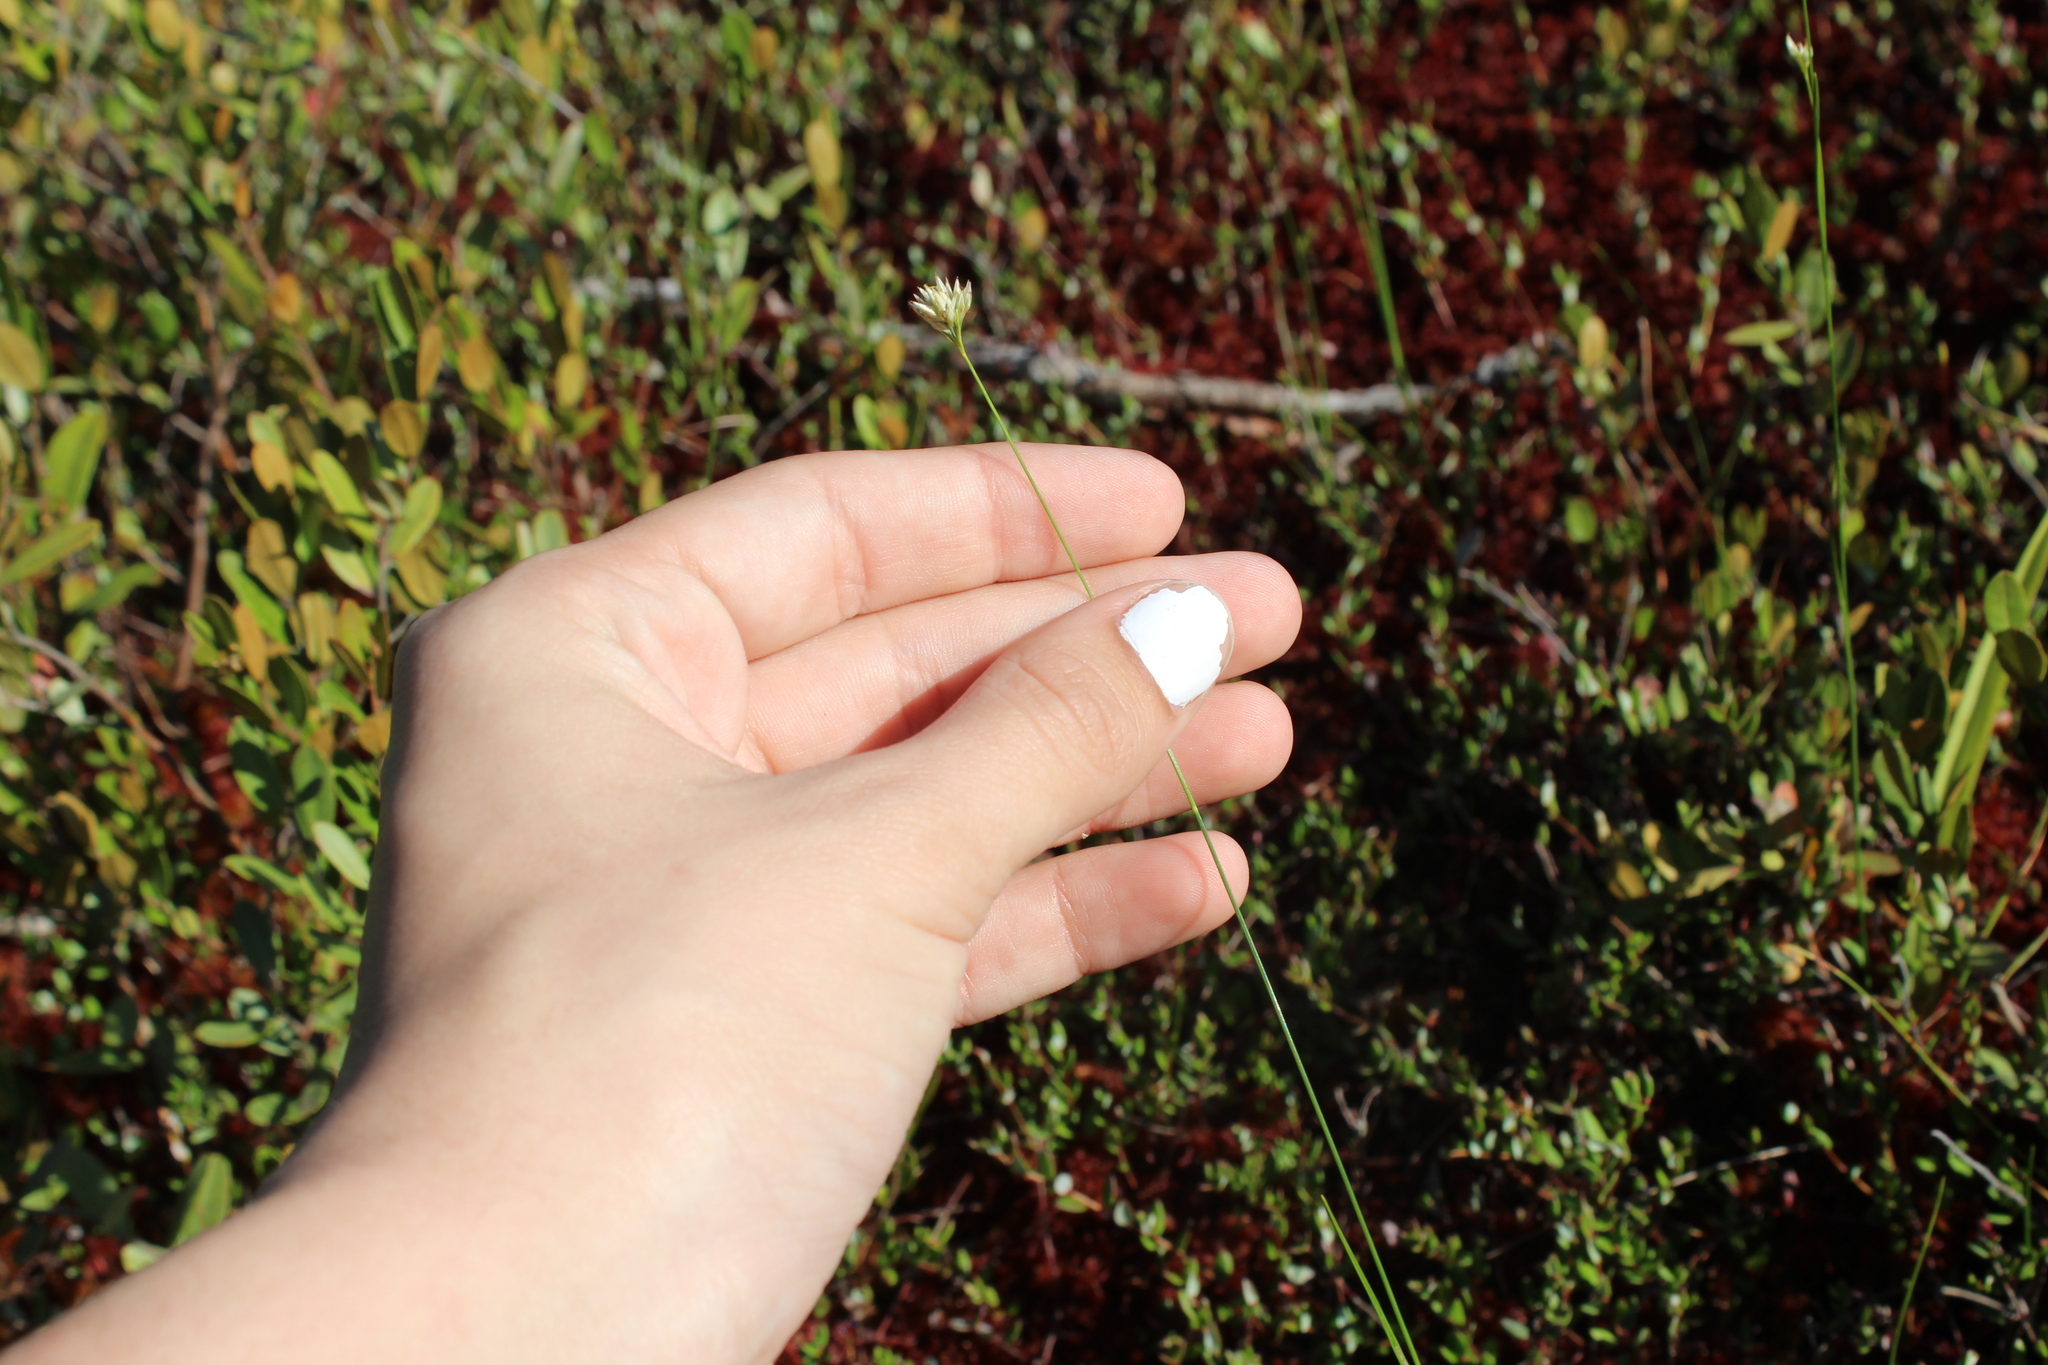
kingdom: Plantae
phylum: Tracheophyta
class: Liliopsida
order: Poales
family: Cyperaceae
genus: Rhynchospora
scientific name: Rhynchospora alba
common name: White beak-sedge
